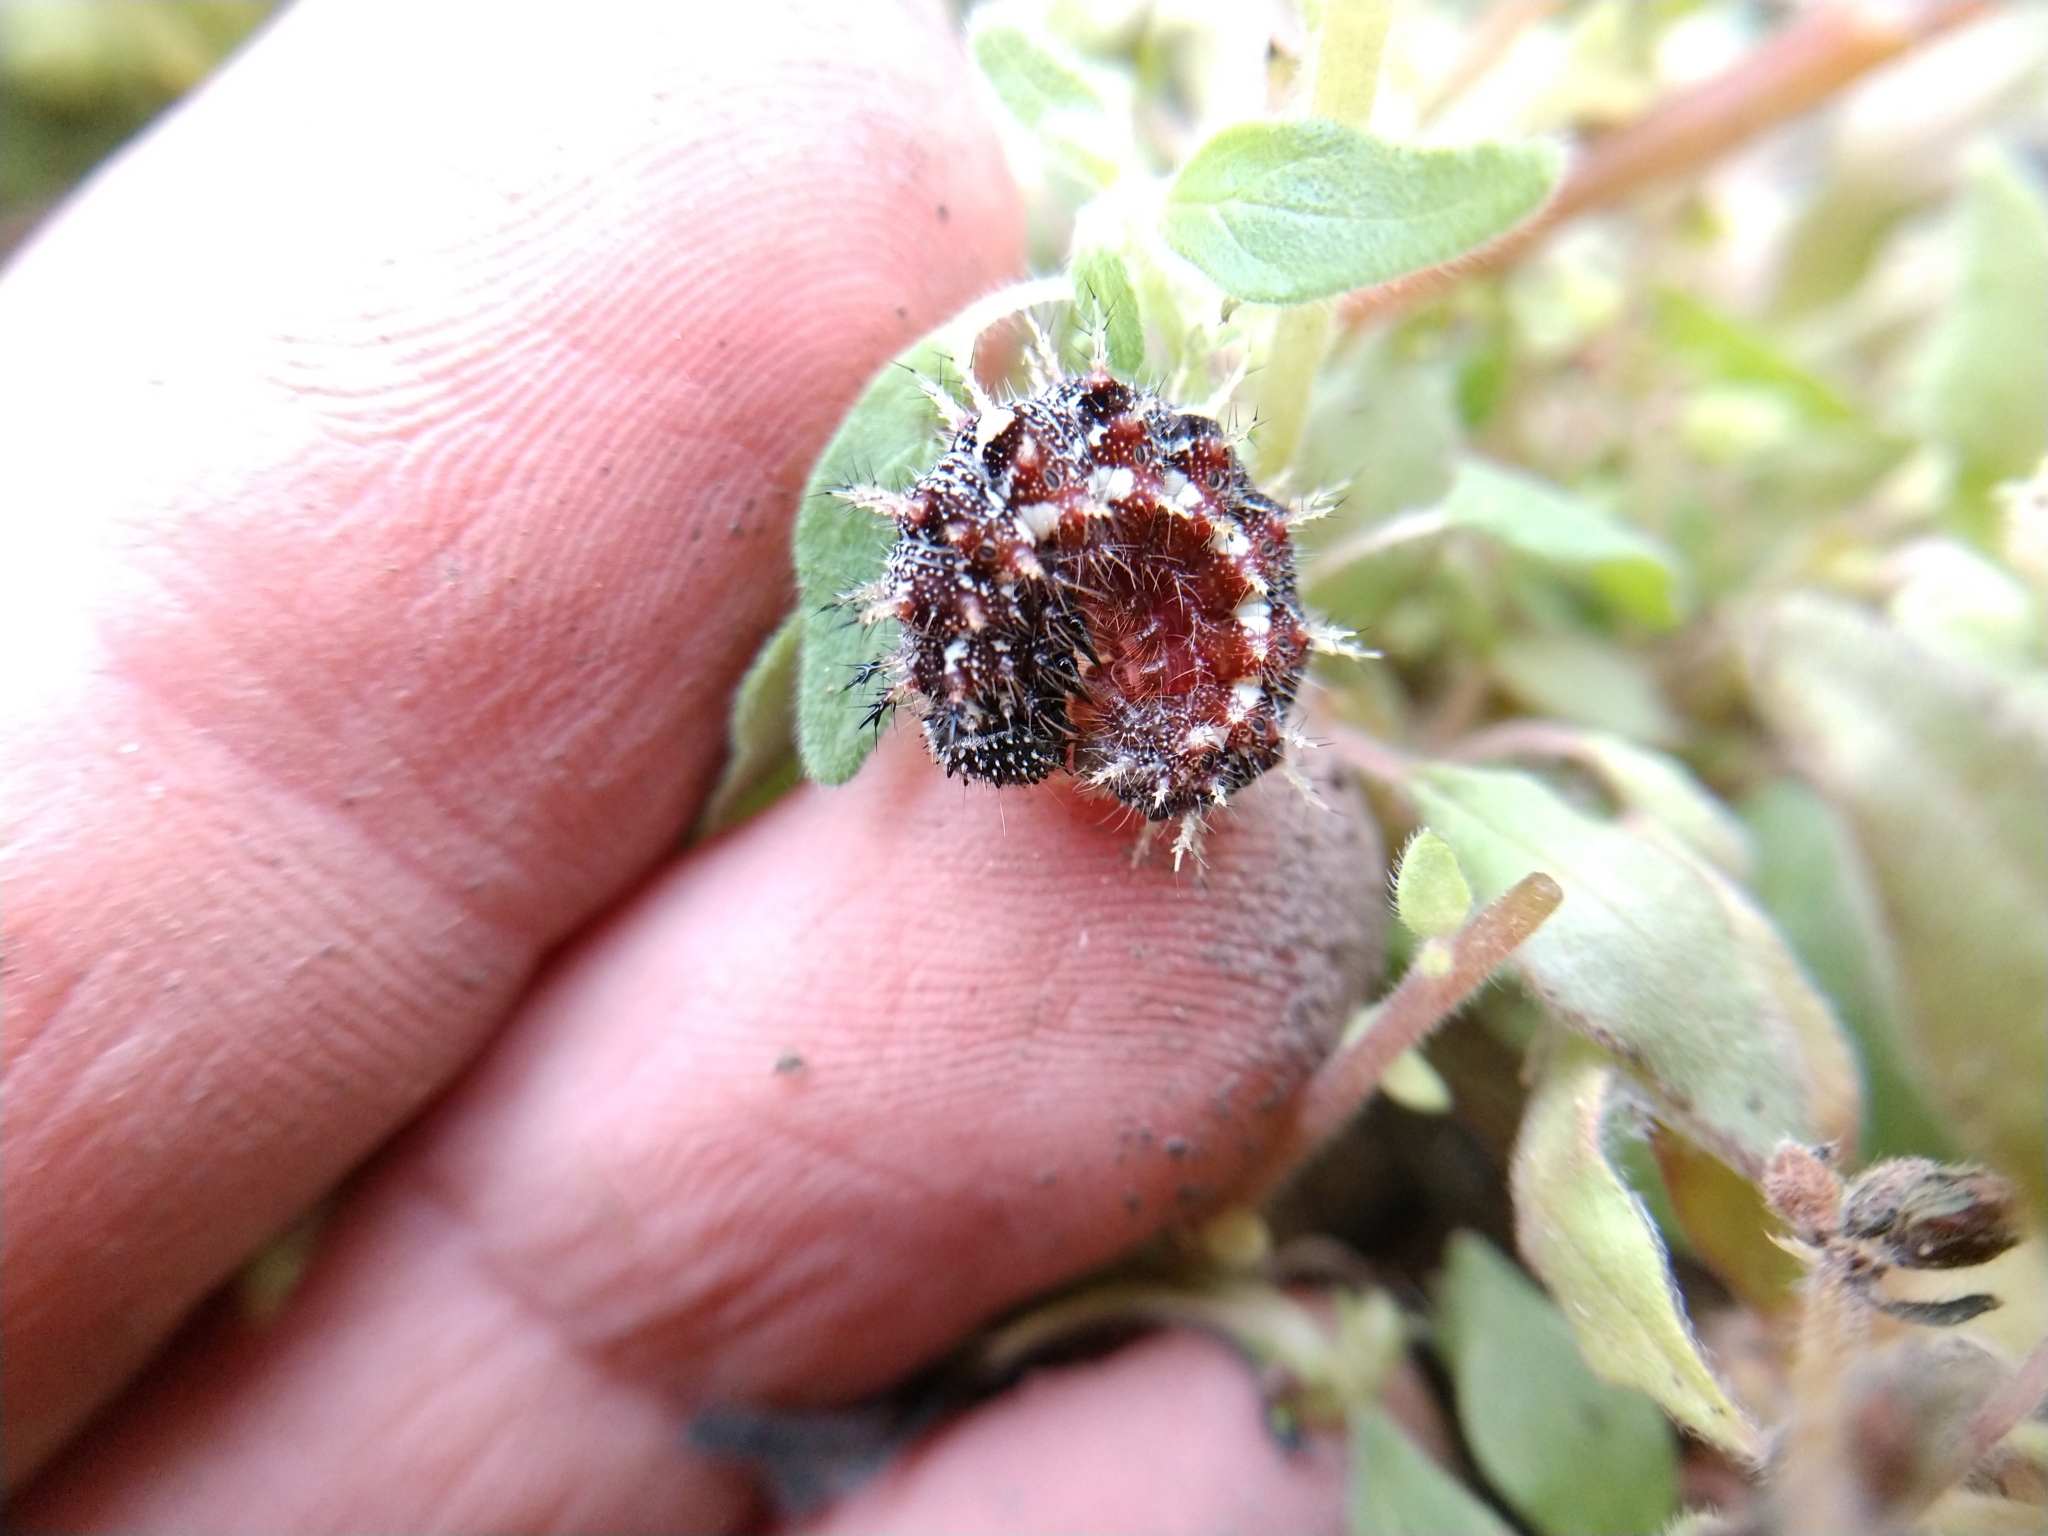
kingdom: Animalia
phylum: Arthropoda
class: Insecta
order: Lepidoptera
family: Nymphalidae
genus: Vanessa
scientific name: Vanessa atalanta
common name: Red admiral
